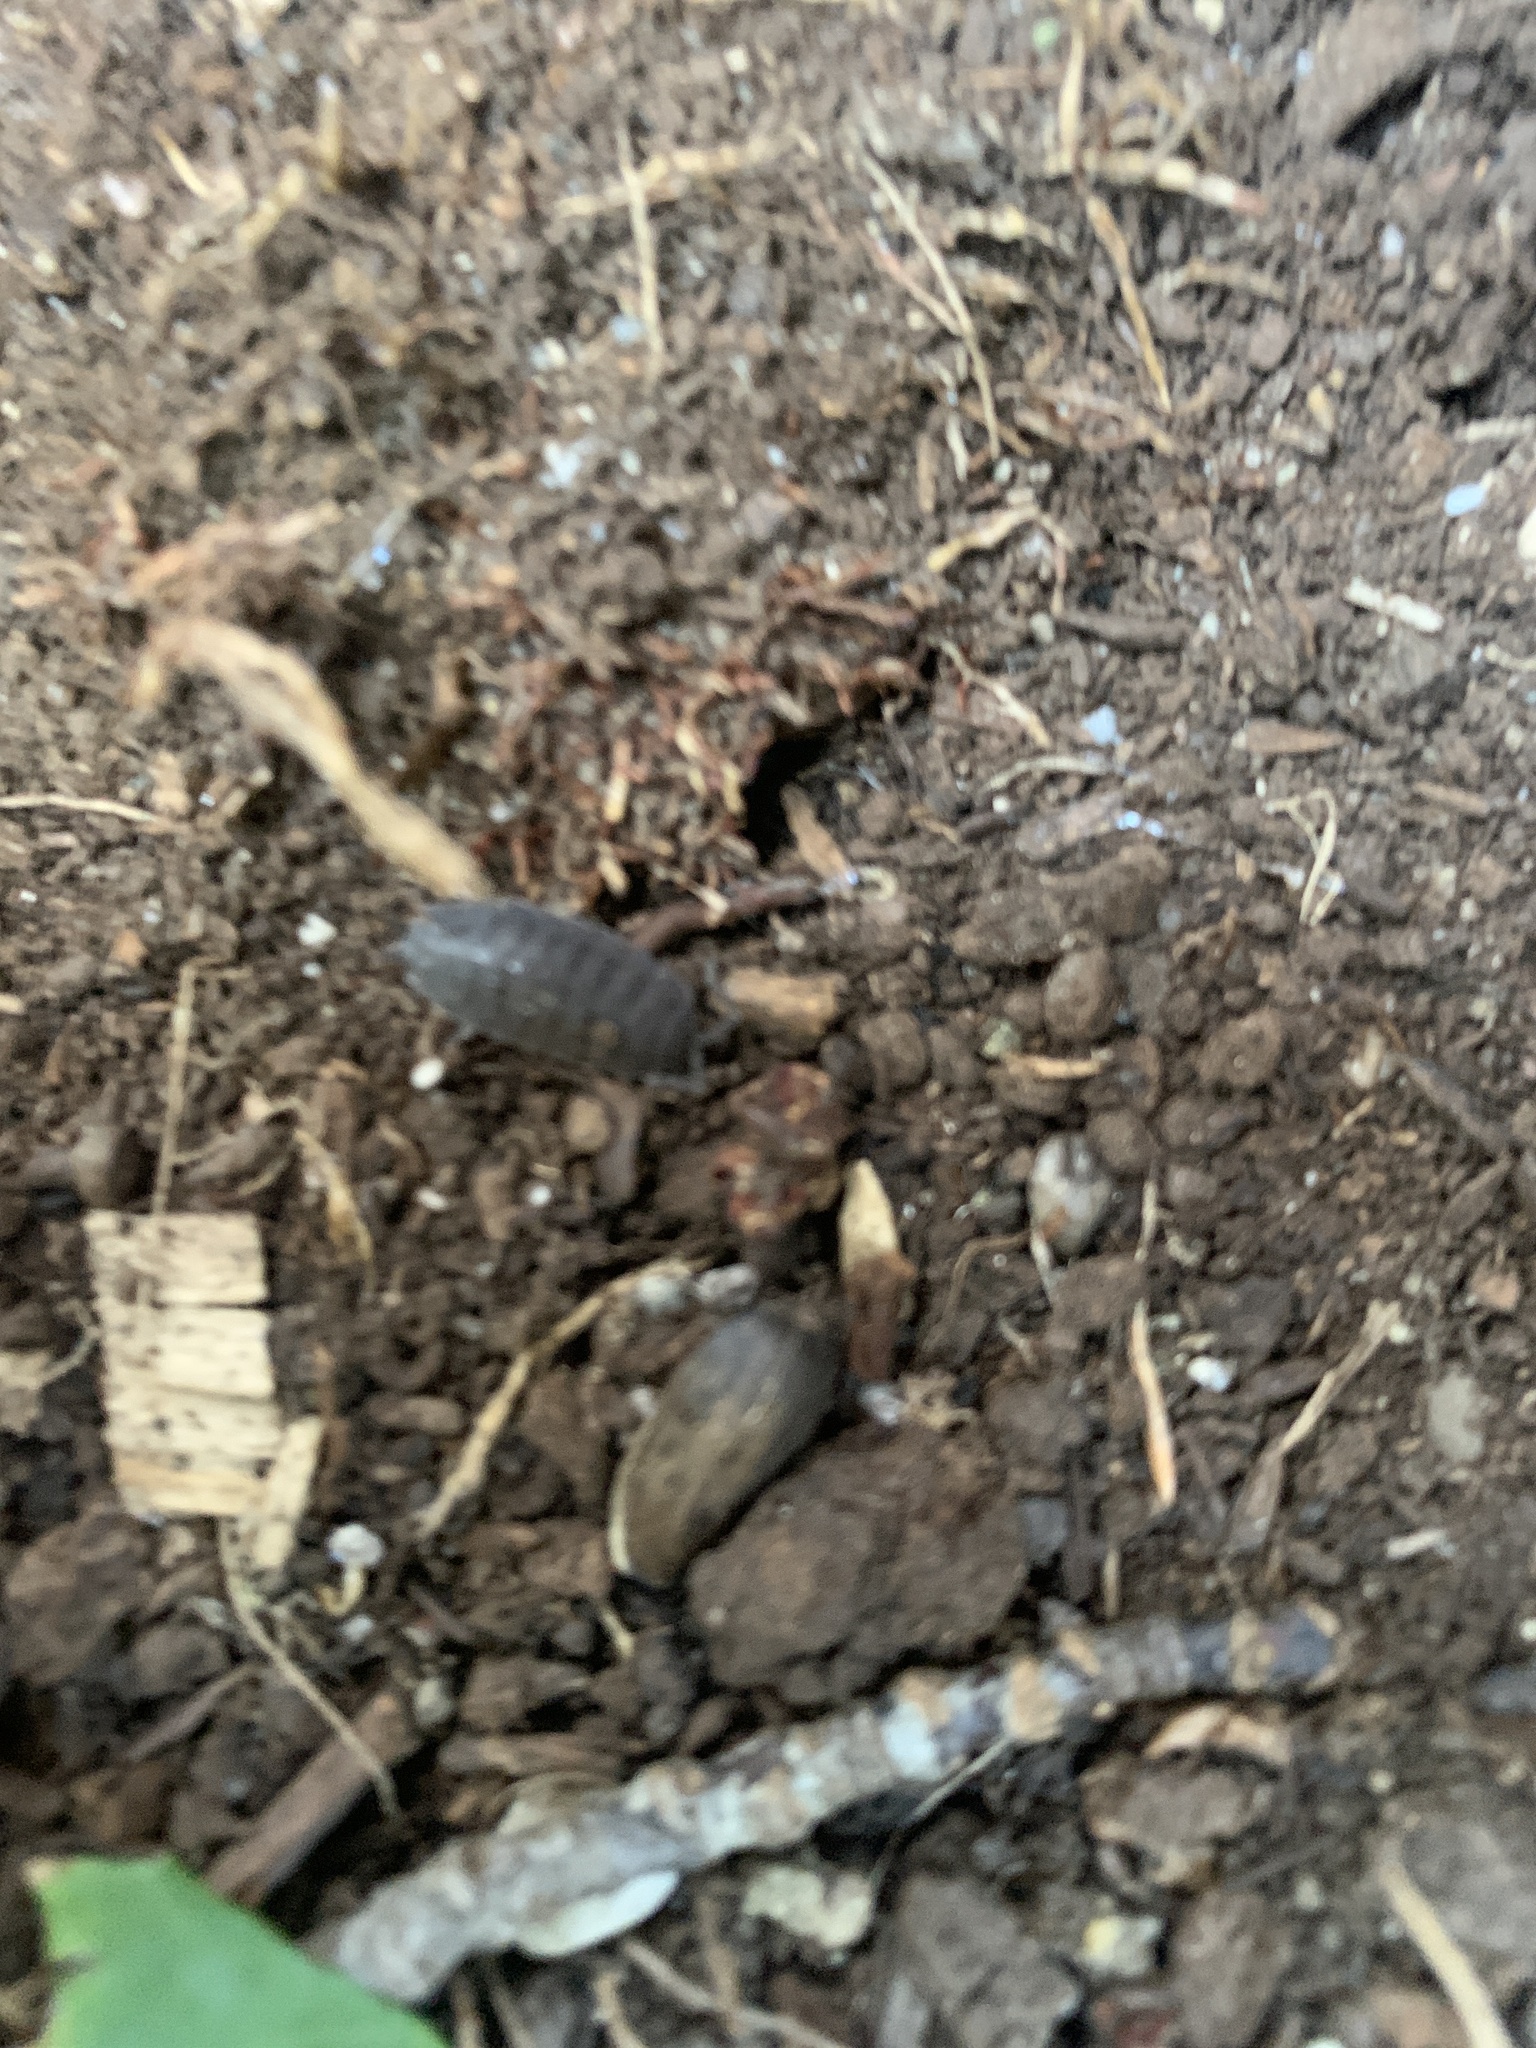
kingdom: Animalia
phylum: Arthropoda
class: Malacostraca
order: Isopoda
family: Porcellionidae
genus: Porcellio
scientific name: Porcellio scaber
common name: Common rough woodlouse
